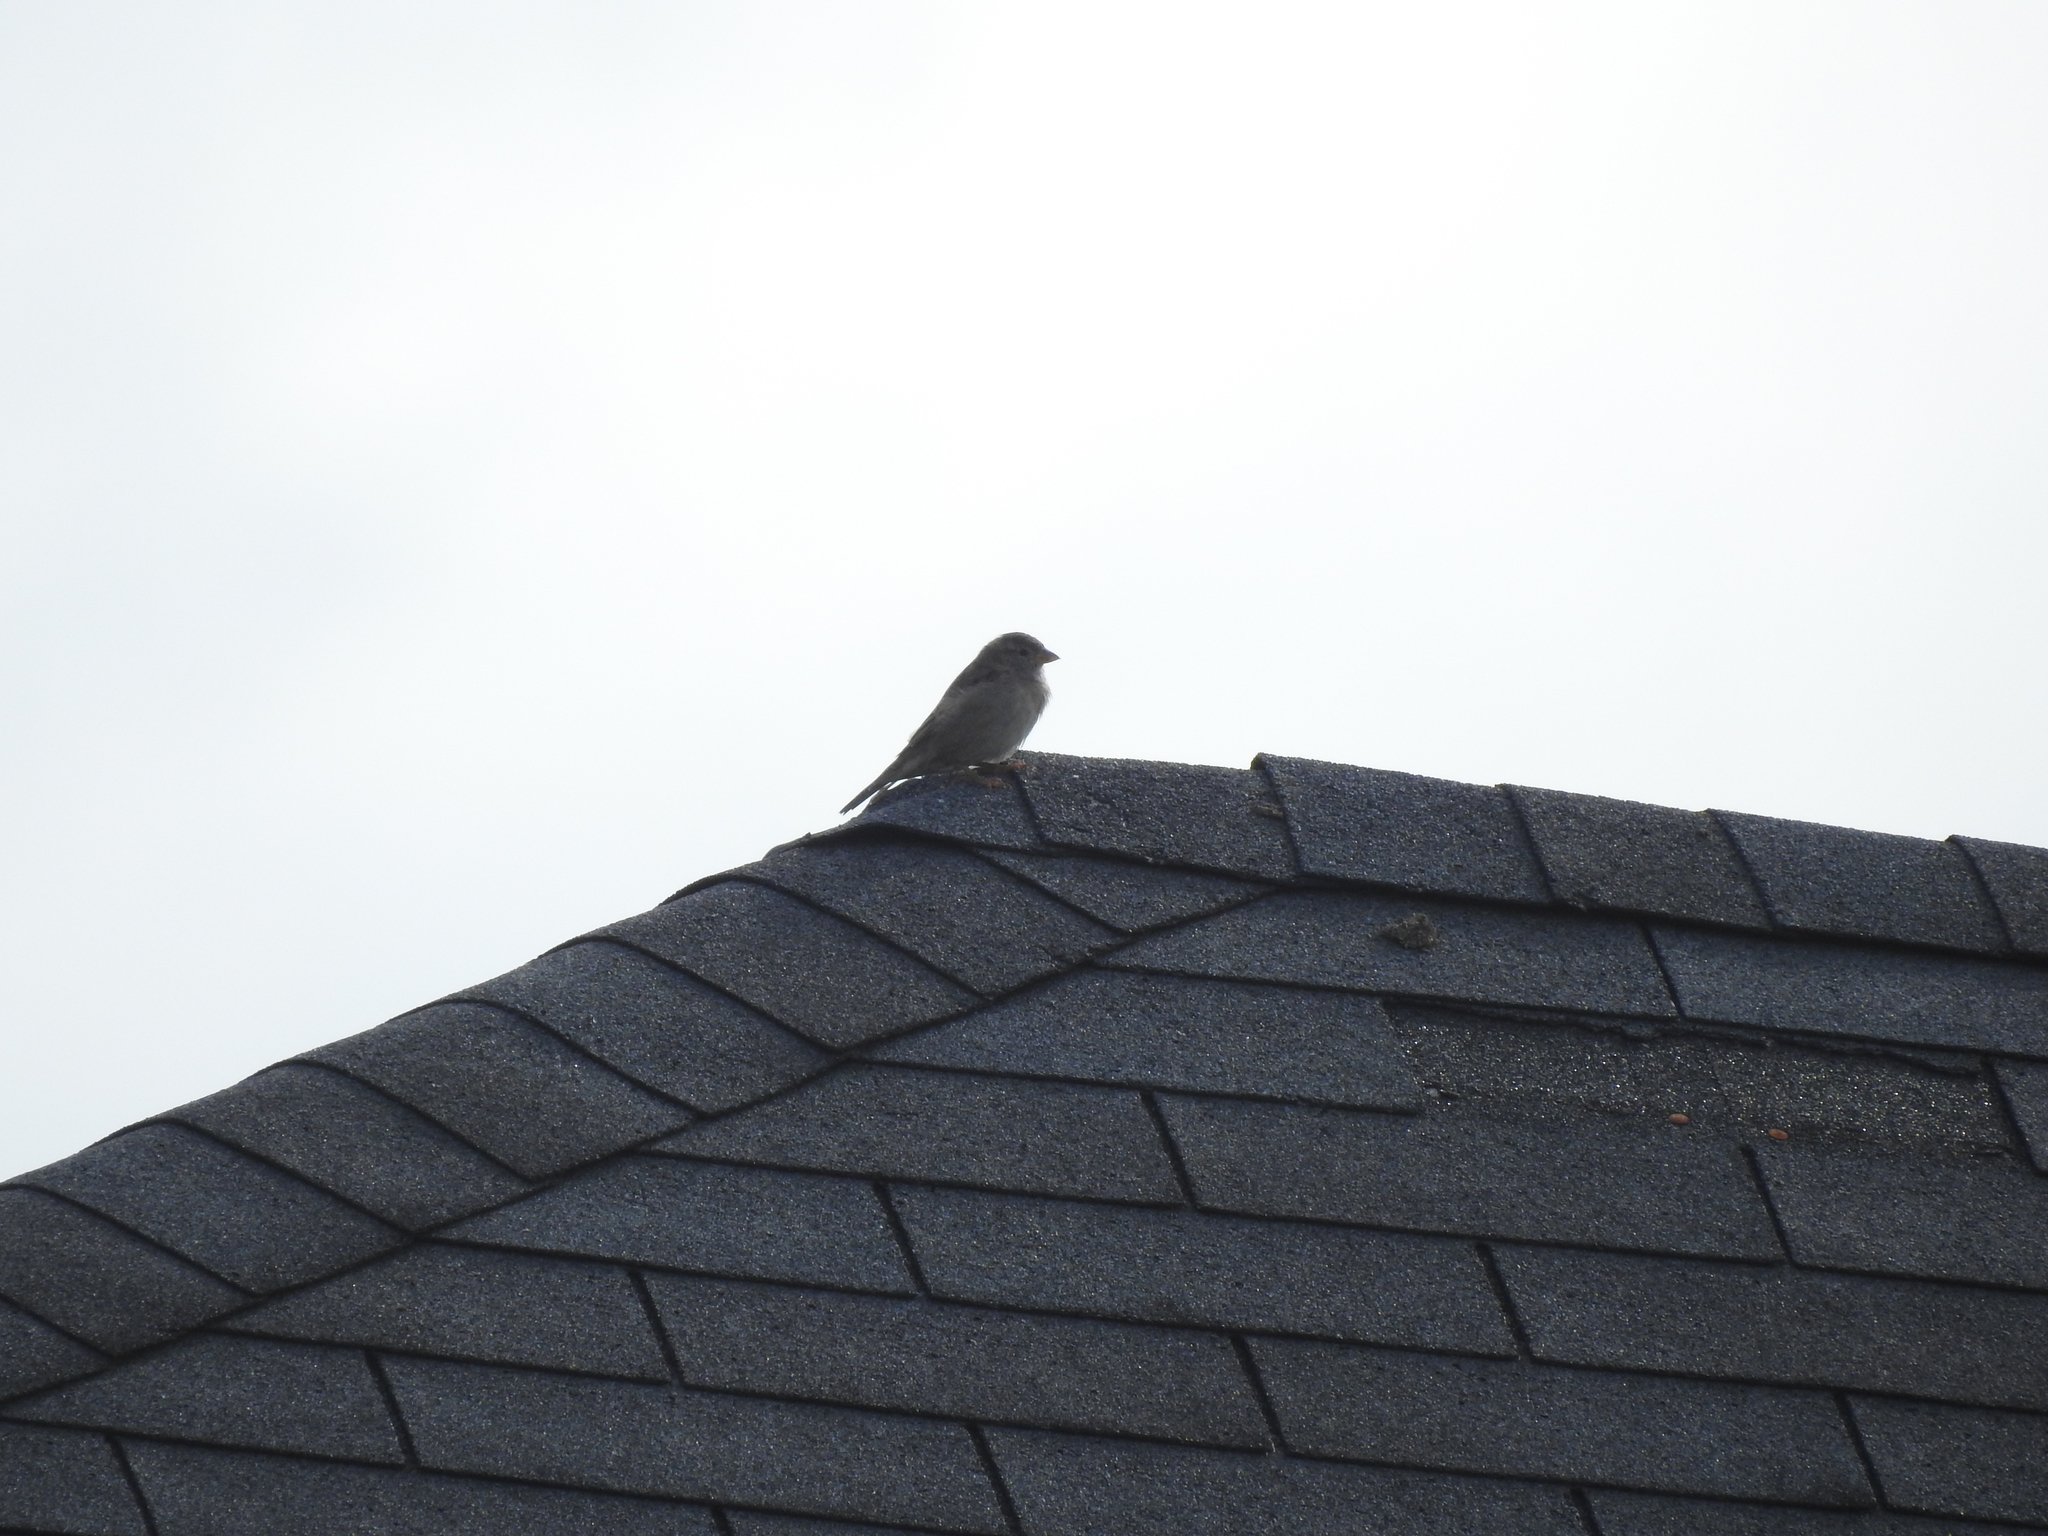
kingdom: Animalia
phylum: Chordata
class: Aves
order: Passeriformes
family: Passeridae
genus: Passer
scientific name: Passer domesticus
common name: House sparrow
